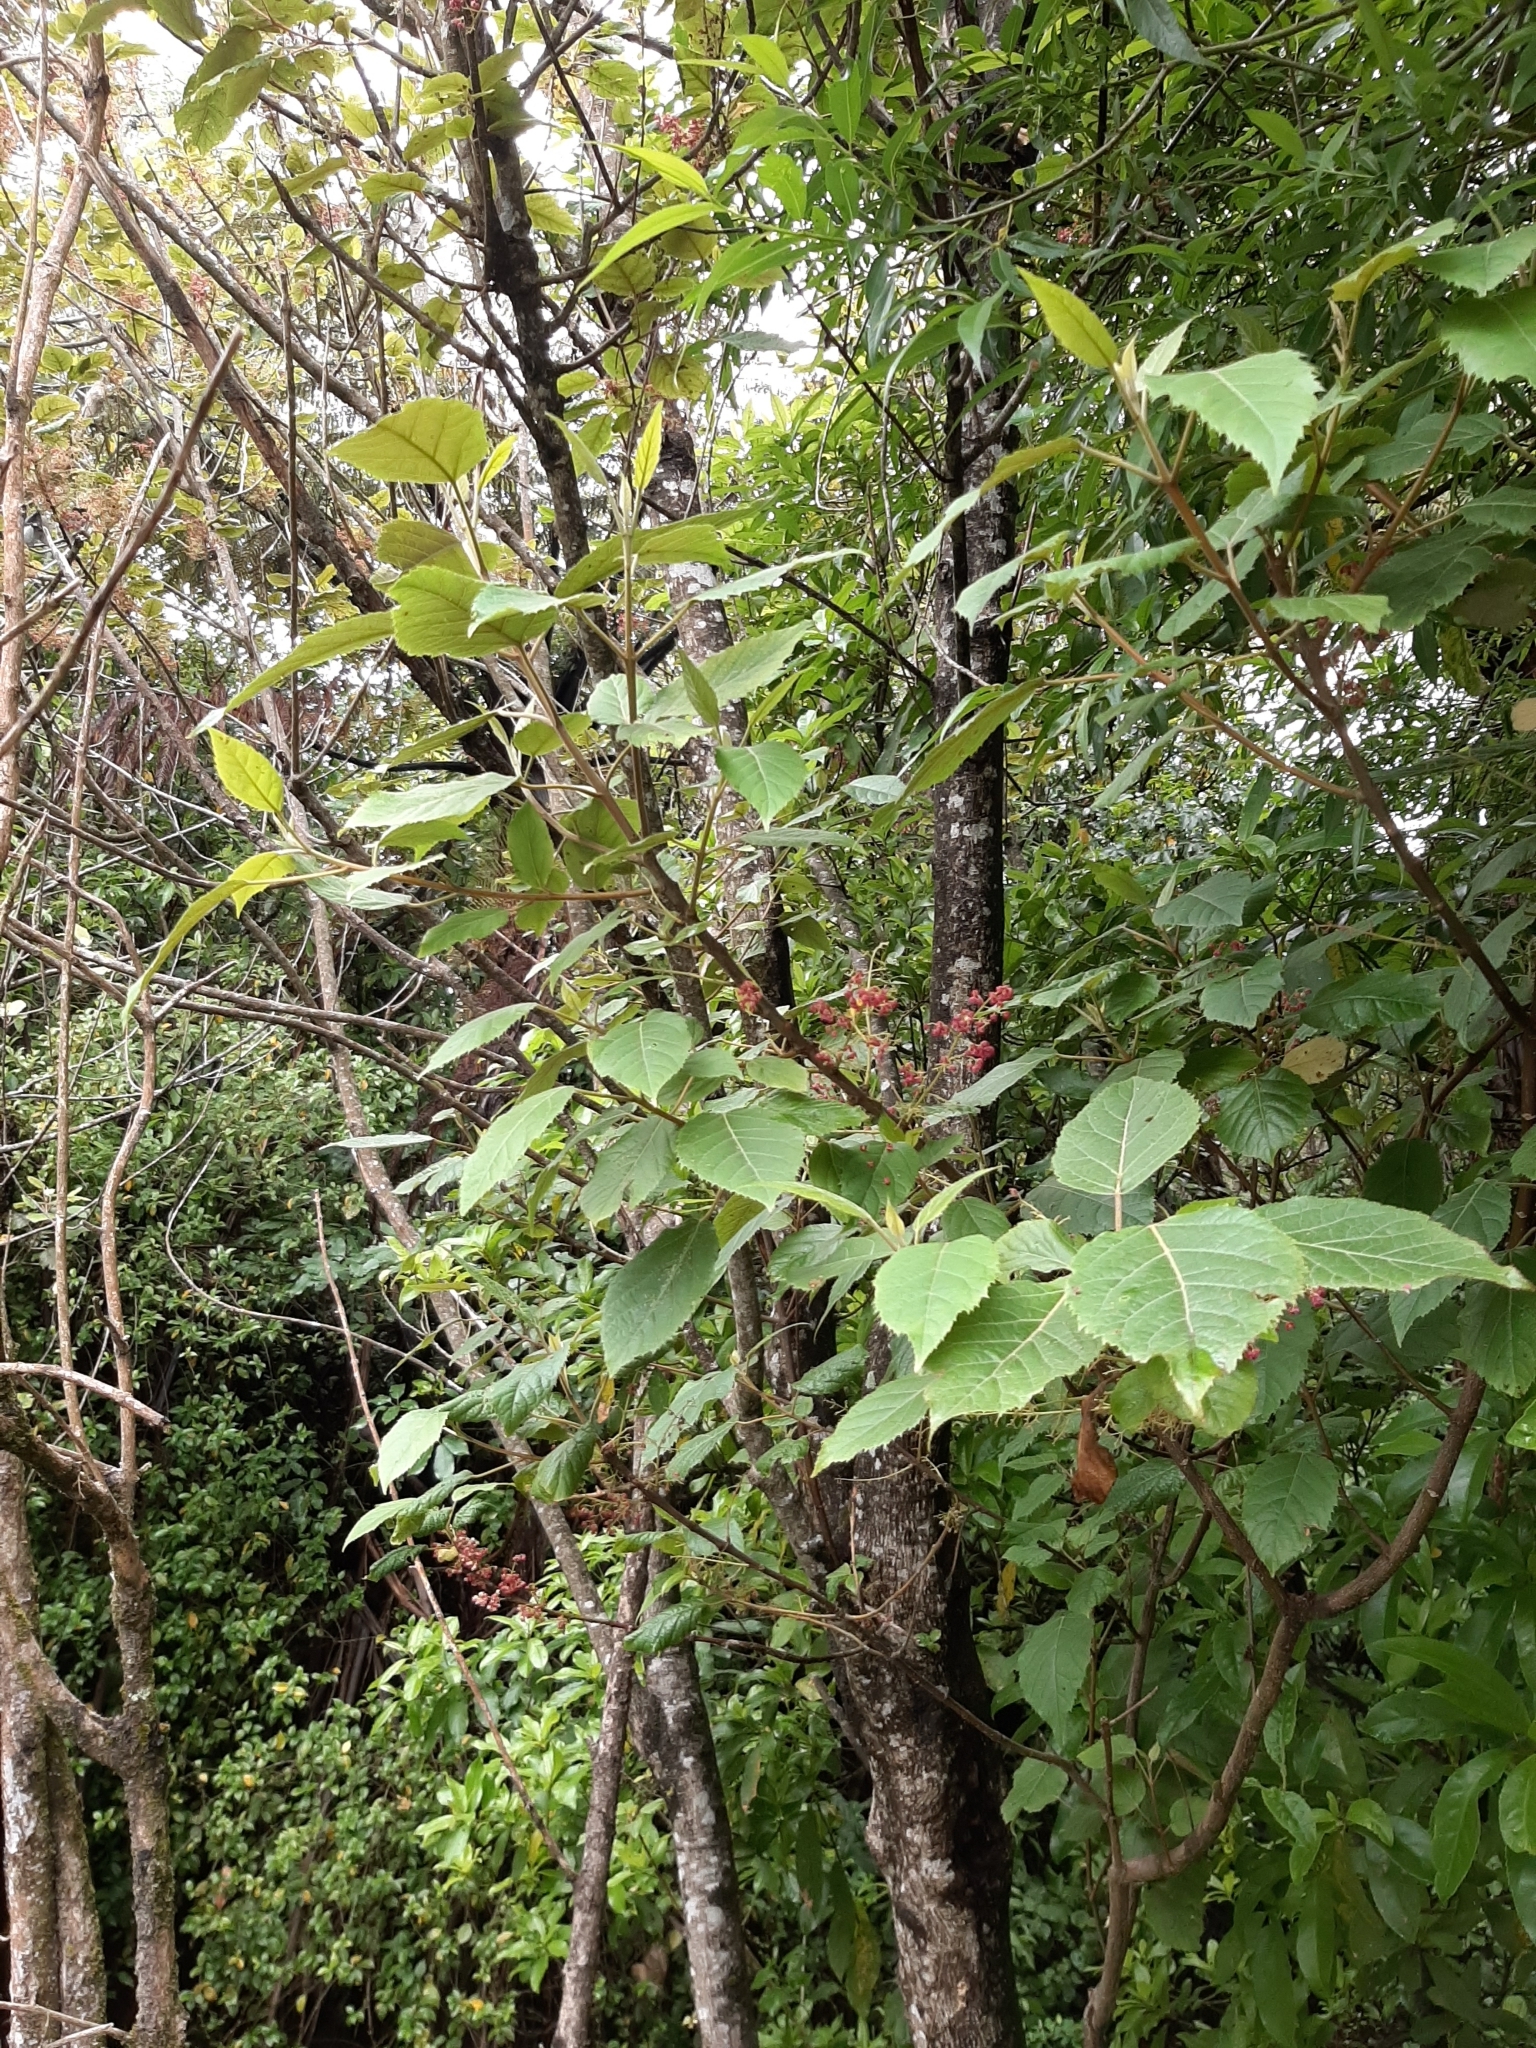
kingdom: Plantae
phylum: Tracheophyta
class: Magnoliopsida
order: Oxalidales
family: Elaeocarpaceae
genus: Aristotelia
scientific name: Aristotelia serrata
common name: New zealand wineberry
